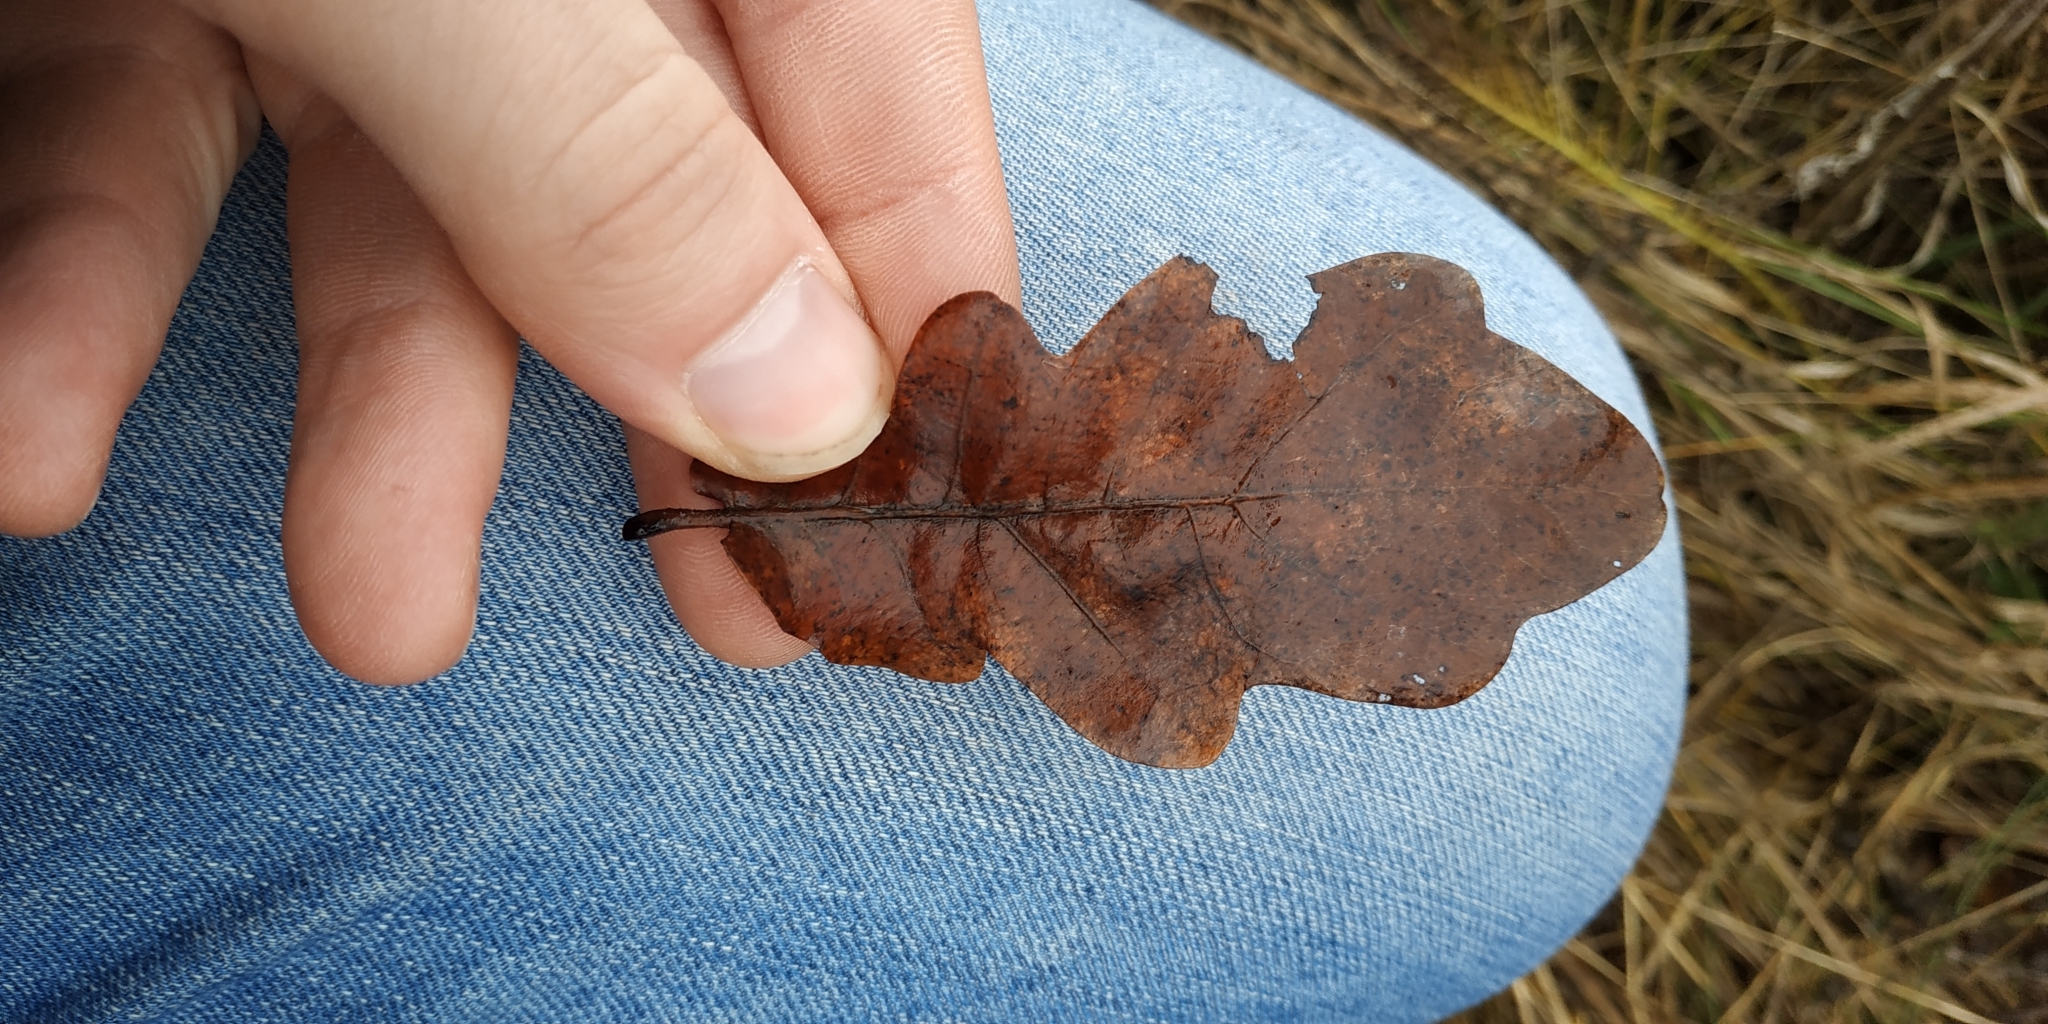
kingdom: Plantae
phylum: Tracheophyta
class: Magnoliopsida
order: Fagales
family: Fagaceae
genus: Quercus
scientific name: Quercus robur
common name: Pedunculate oak
